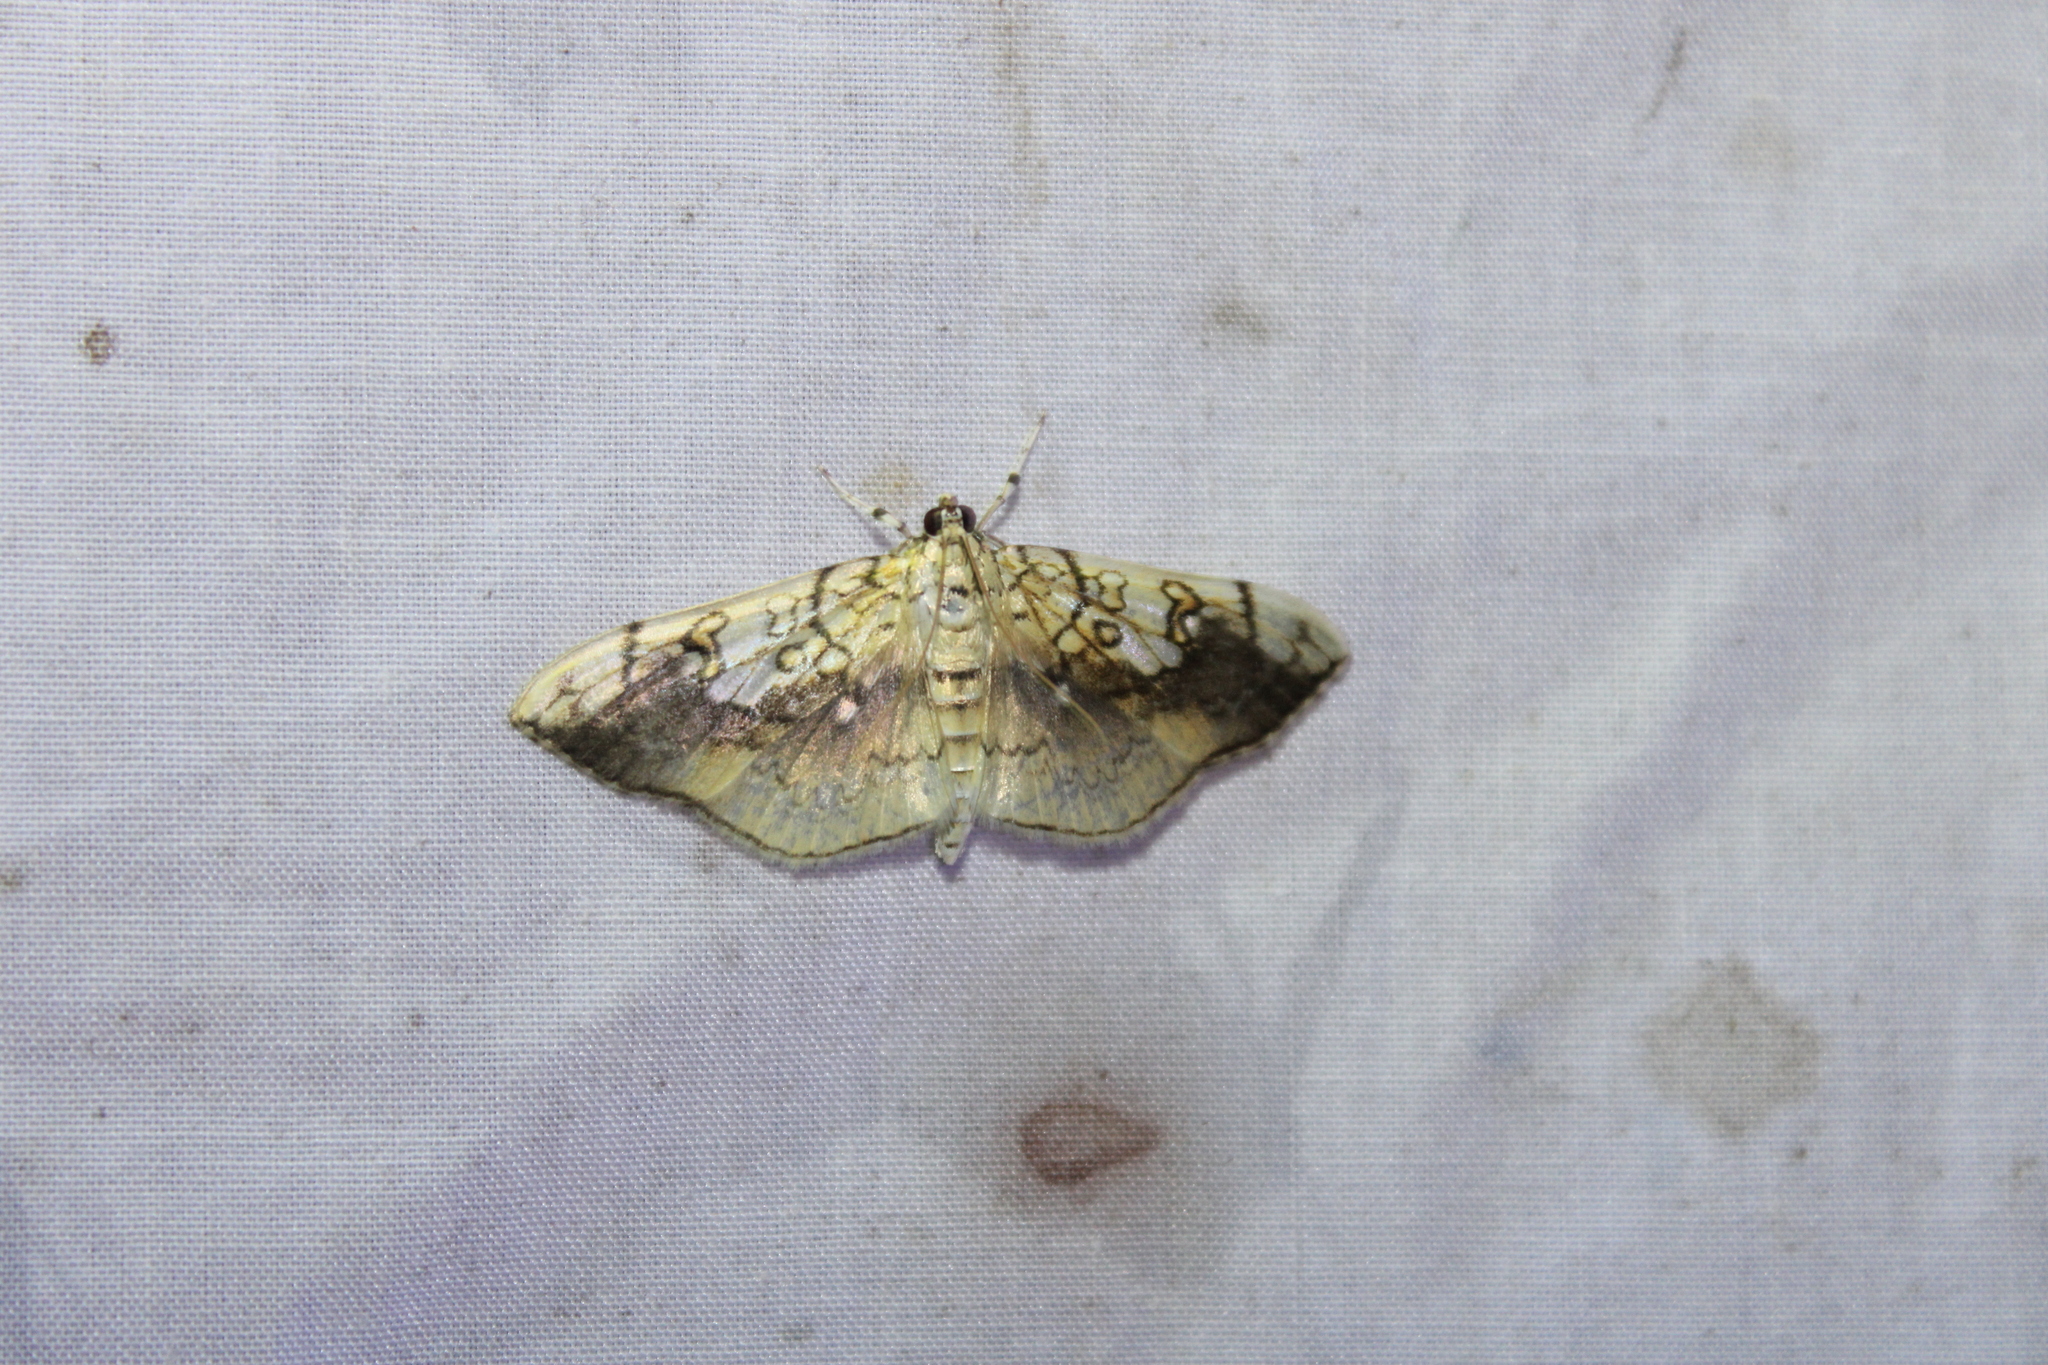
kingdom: Animalia
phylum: Arthropoda
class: Insecta
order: Lepidoptera
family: Crambidae
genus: Pantographa
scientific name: Pantographa limata
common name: Basswood leafroller moth
